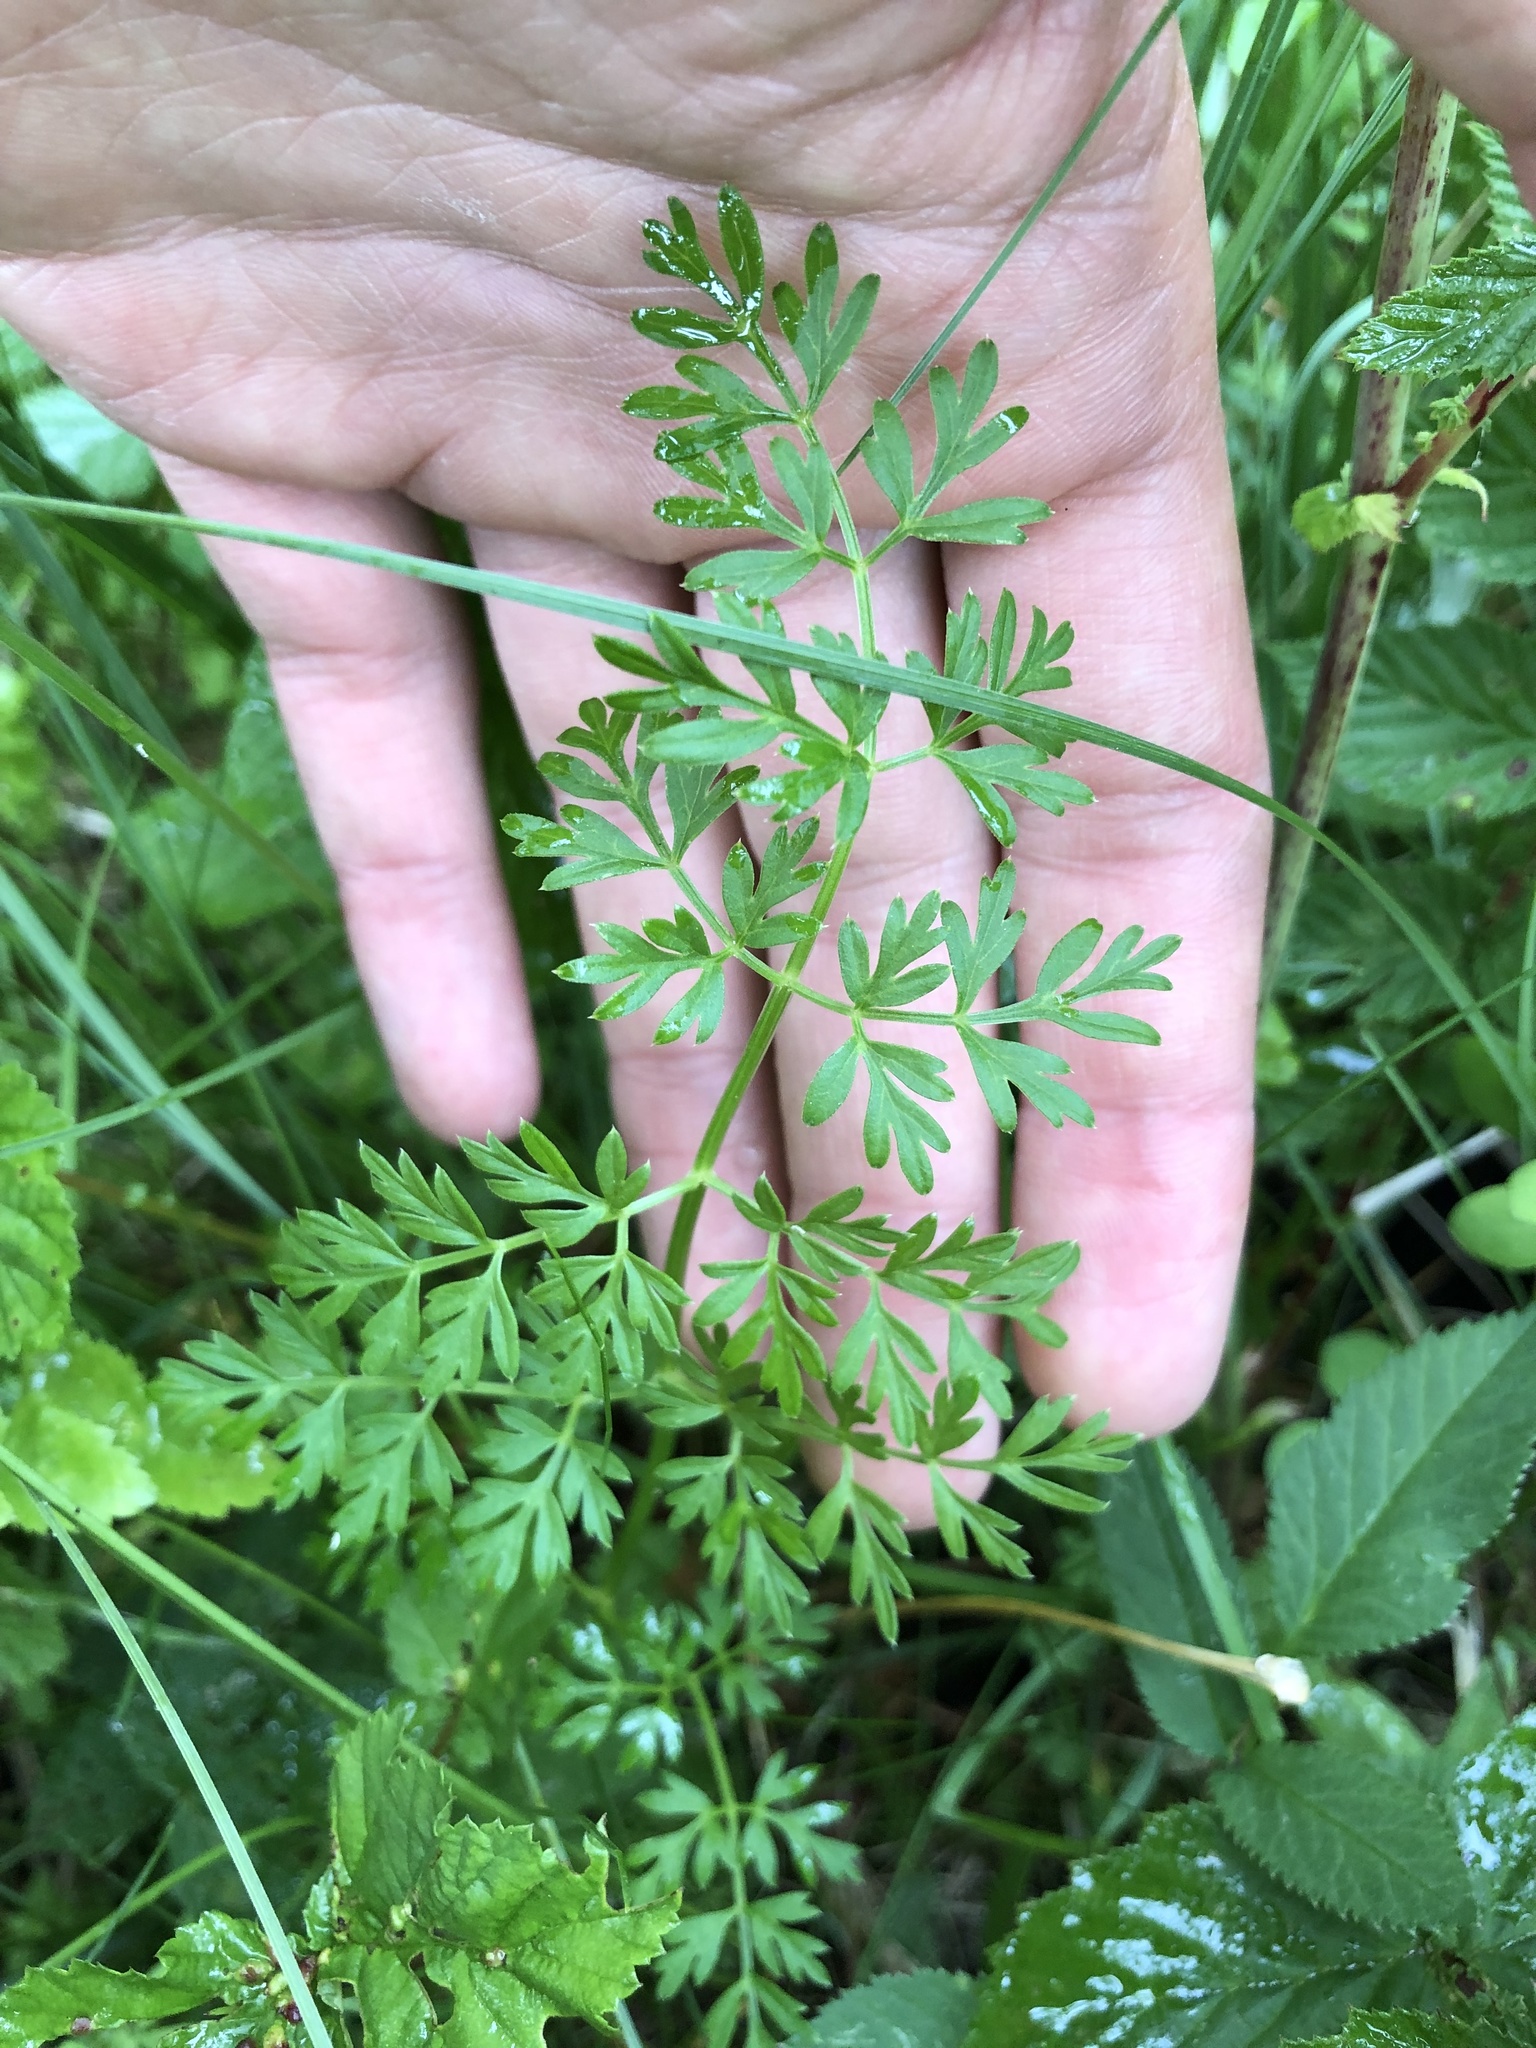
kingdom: Plantae
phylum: Tracheophyta
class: Magnoliopsida
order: Apiales
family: Apiaceae
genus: Selinum
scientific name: Selinum carvifolia
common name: Cambridge milk-parsley
